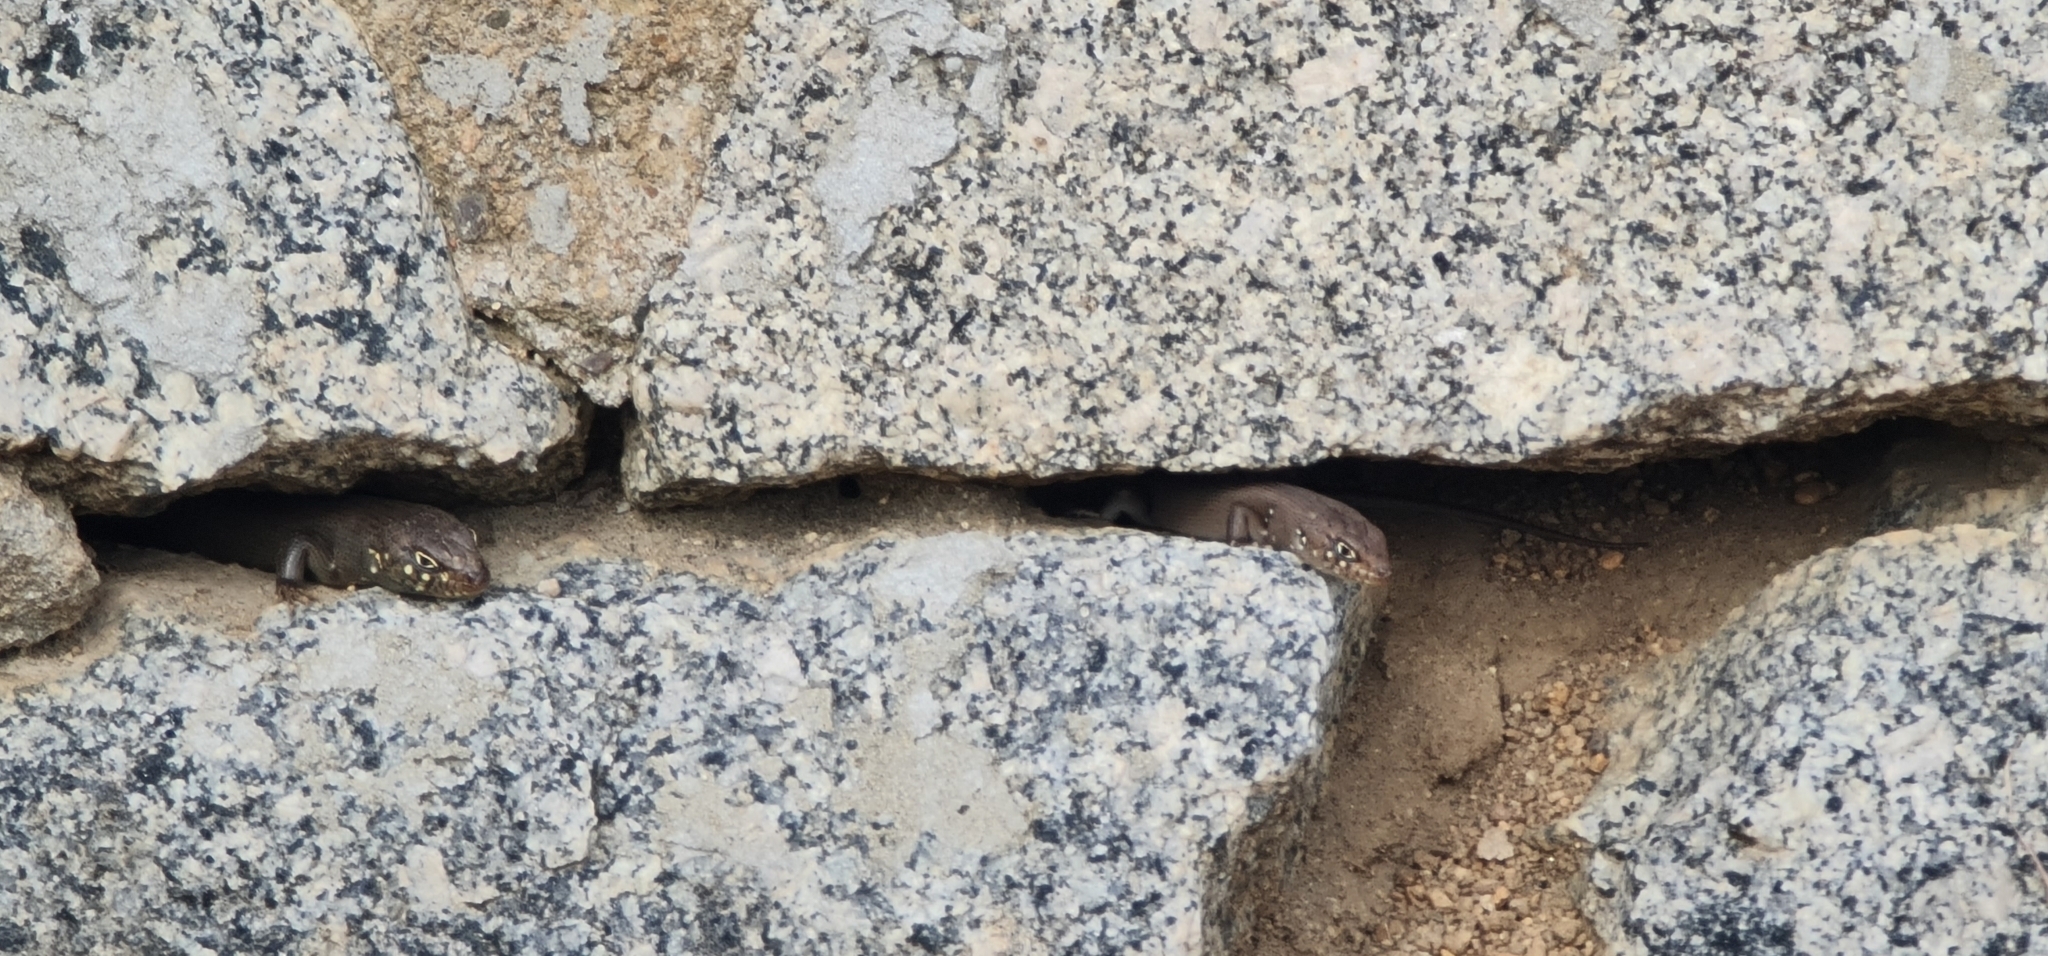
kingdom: Animalia
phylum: Chordata
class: Squamata
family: Scincidae
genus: Liopholis
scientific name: Liopholis modesta
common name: Eastern ranges rock-skink
